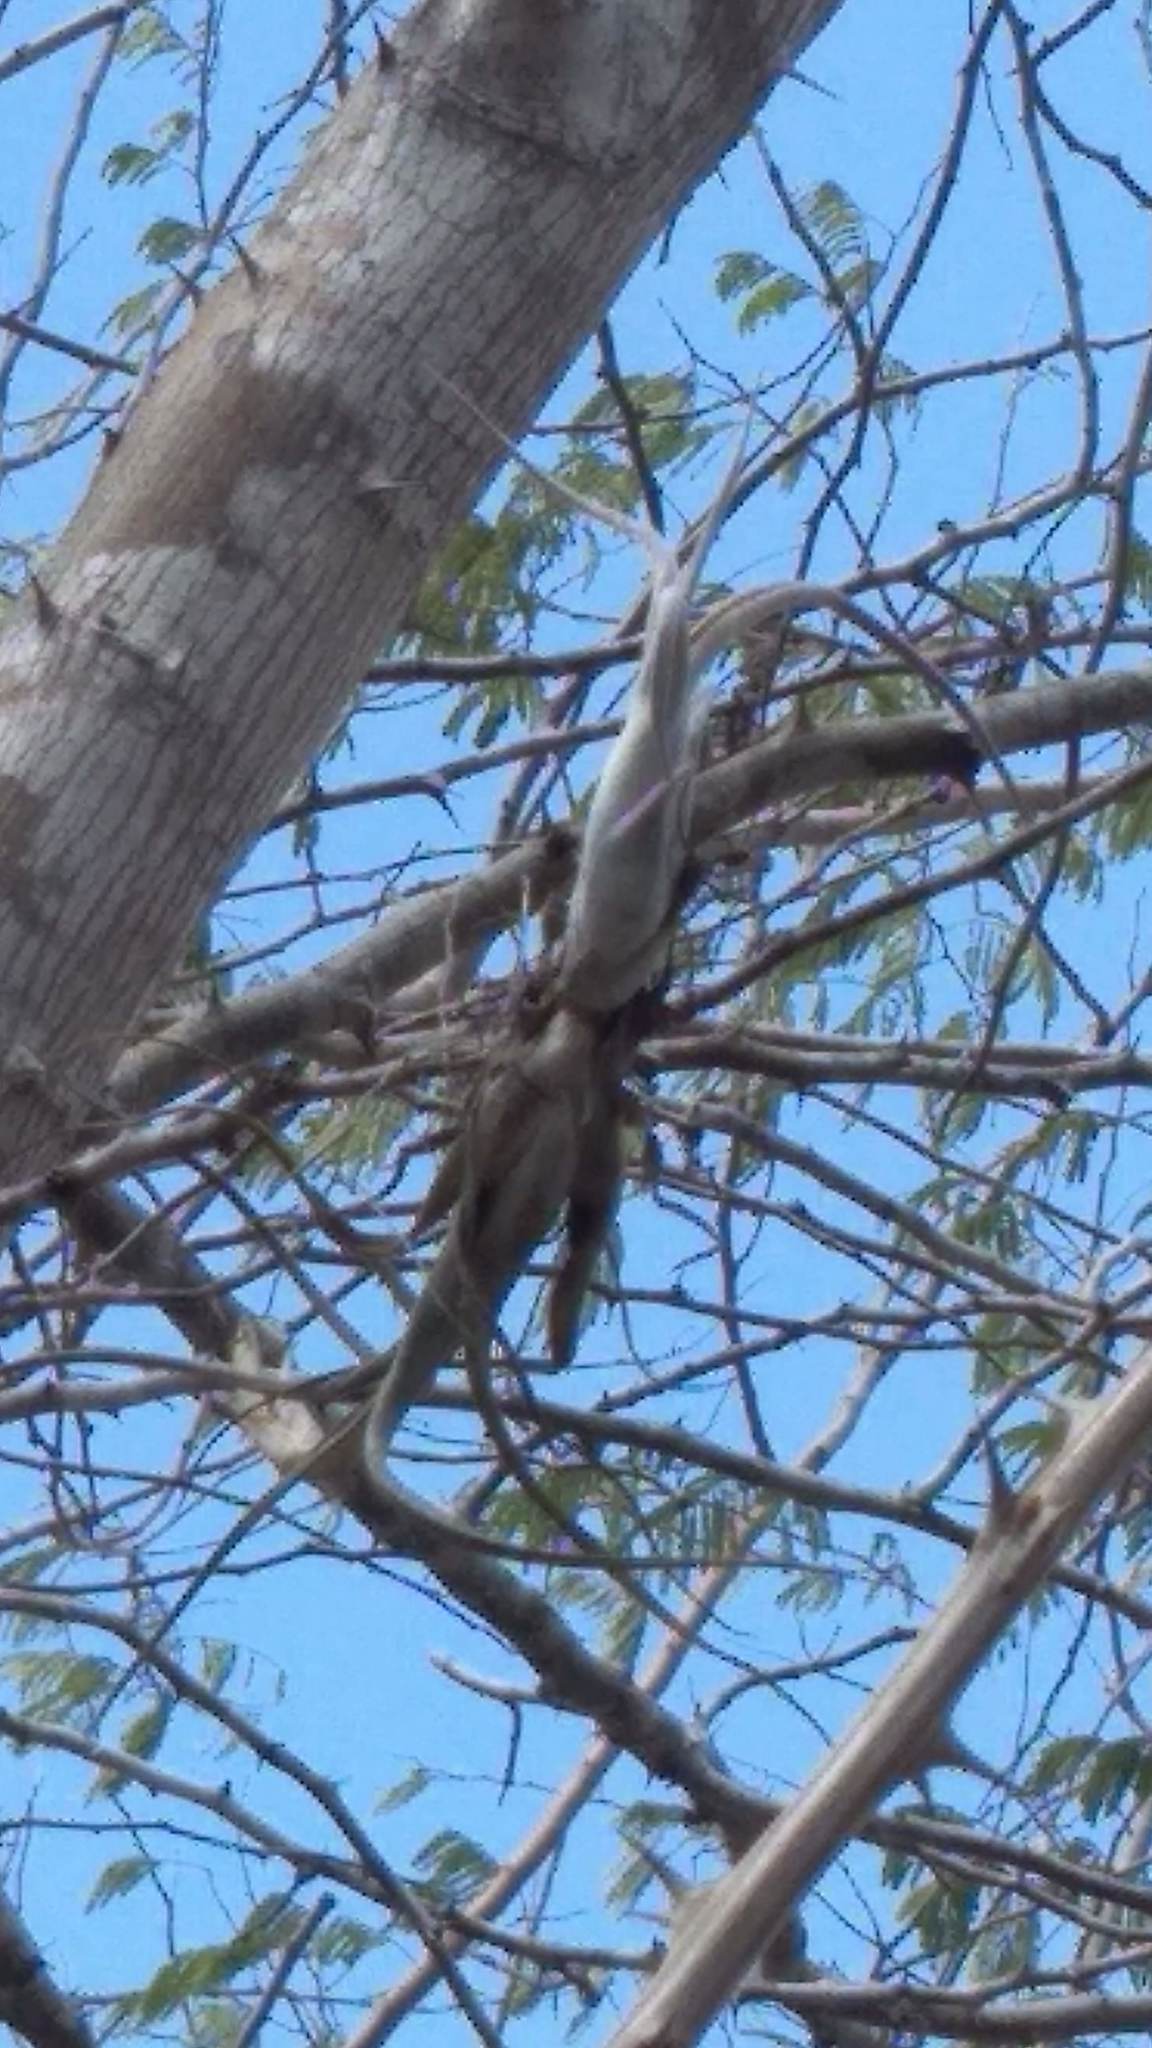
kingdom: Plantae
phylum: Tracheophyta
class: Liliopsida
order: Poales
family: Bromeliaceae
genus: Tillandsia
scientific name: Tillandsia paucifolia
